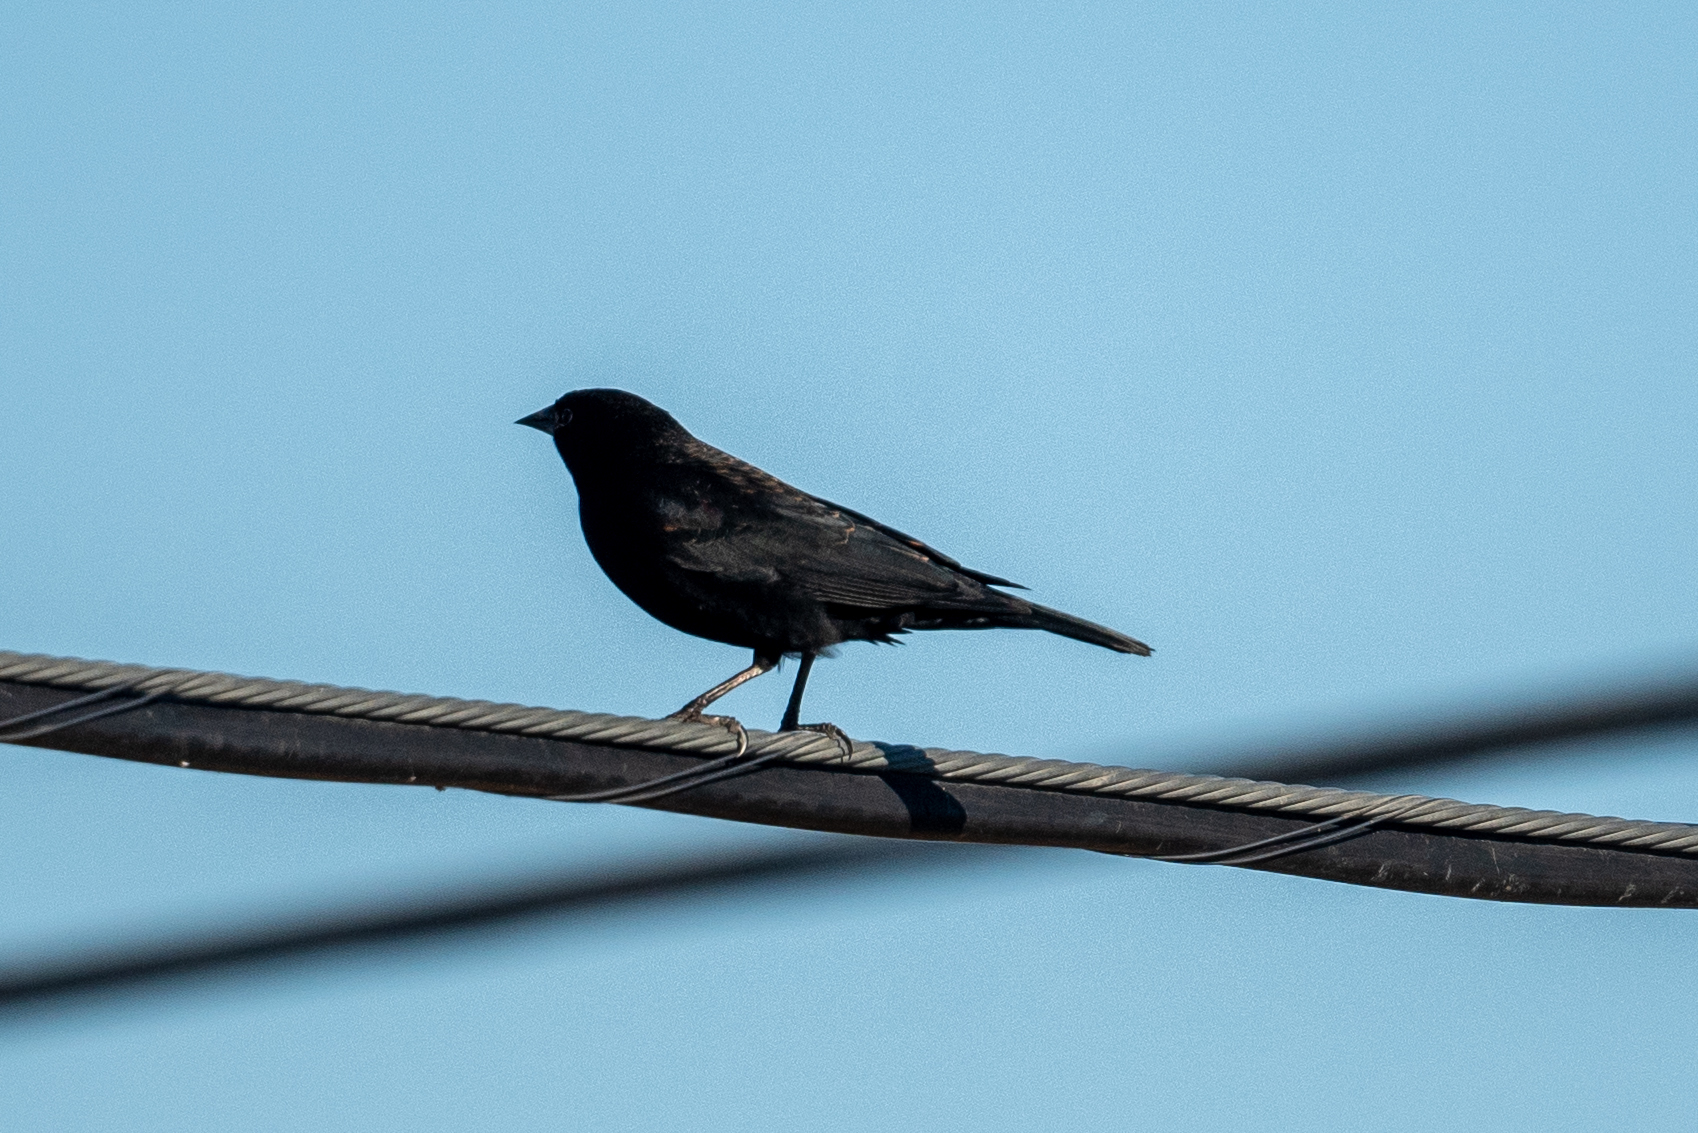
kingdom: Animalia
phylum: Chordata
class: Aves
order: Passeriformes
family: Icteridae
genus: Agelaius
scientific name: Agelaius phoeniceus
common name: Red-winged blackbird
